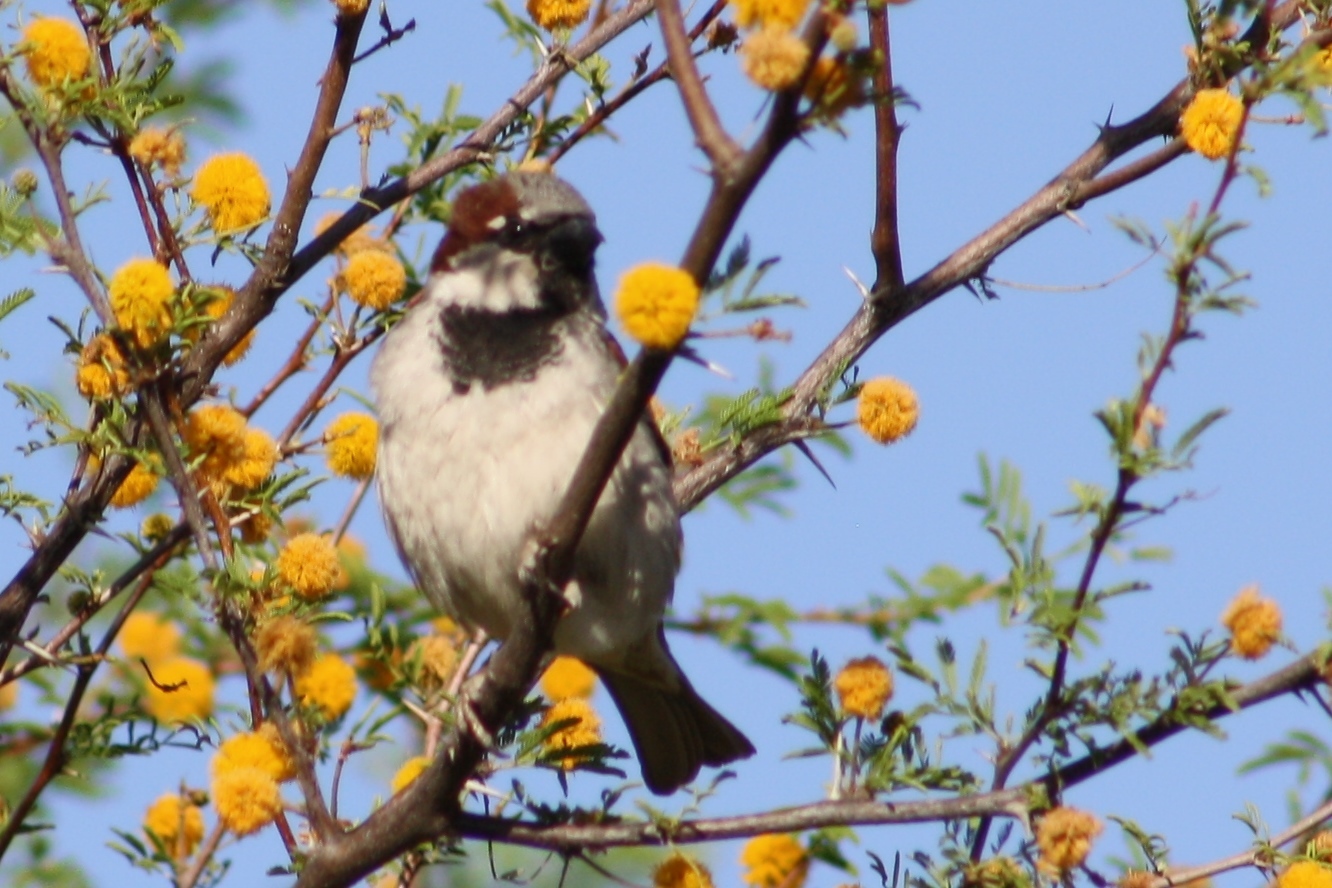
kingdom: Animalia
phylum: Chordata
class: Aves
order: Passeriformes
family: Passeridae
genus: Passer
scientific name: Passer domesticus
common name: House sparrow
